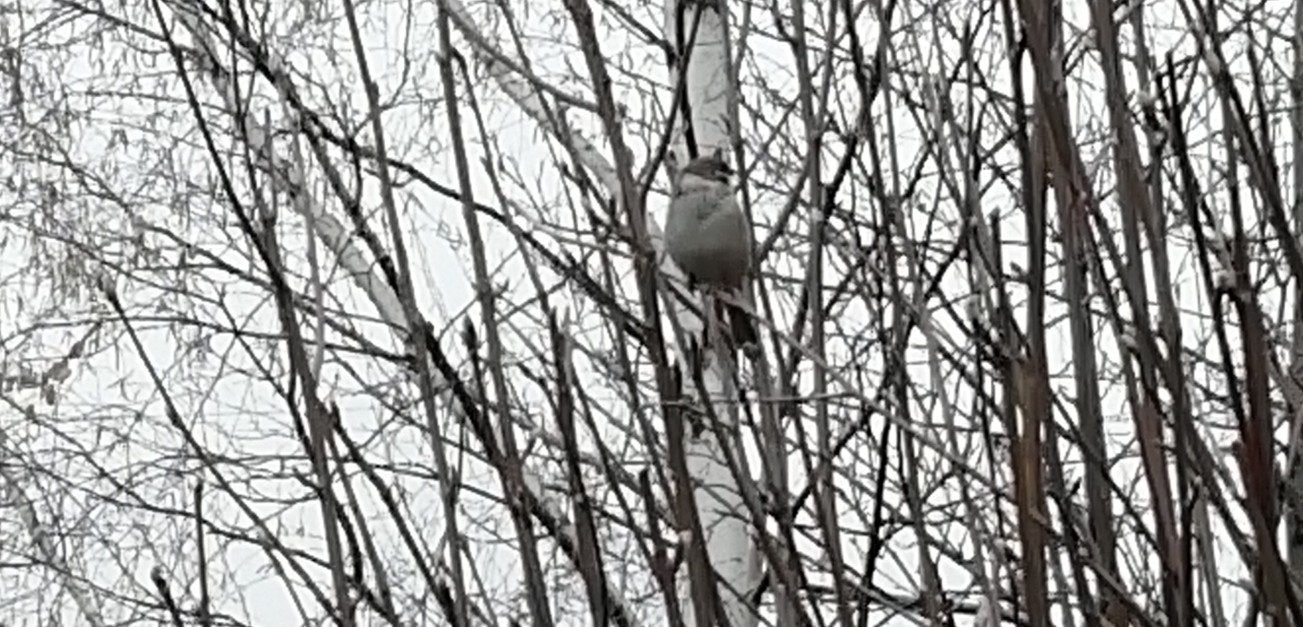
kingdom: Animalia
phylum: Chordata
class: Aves
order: Passeriformes
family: Passeridae
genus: Passer
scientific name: Passer domesticus
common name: House sparrow
